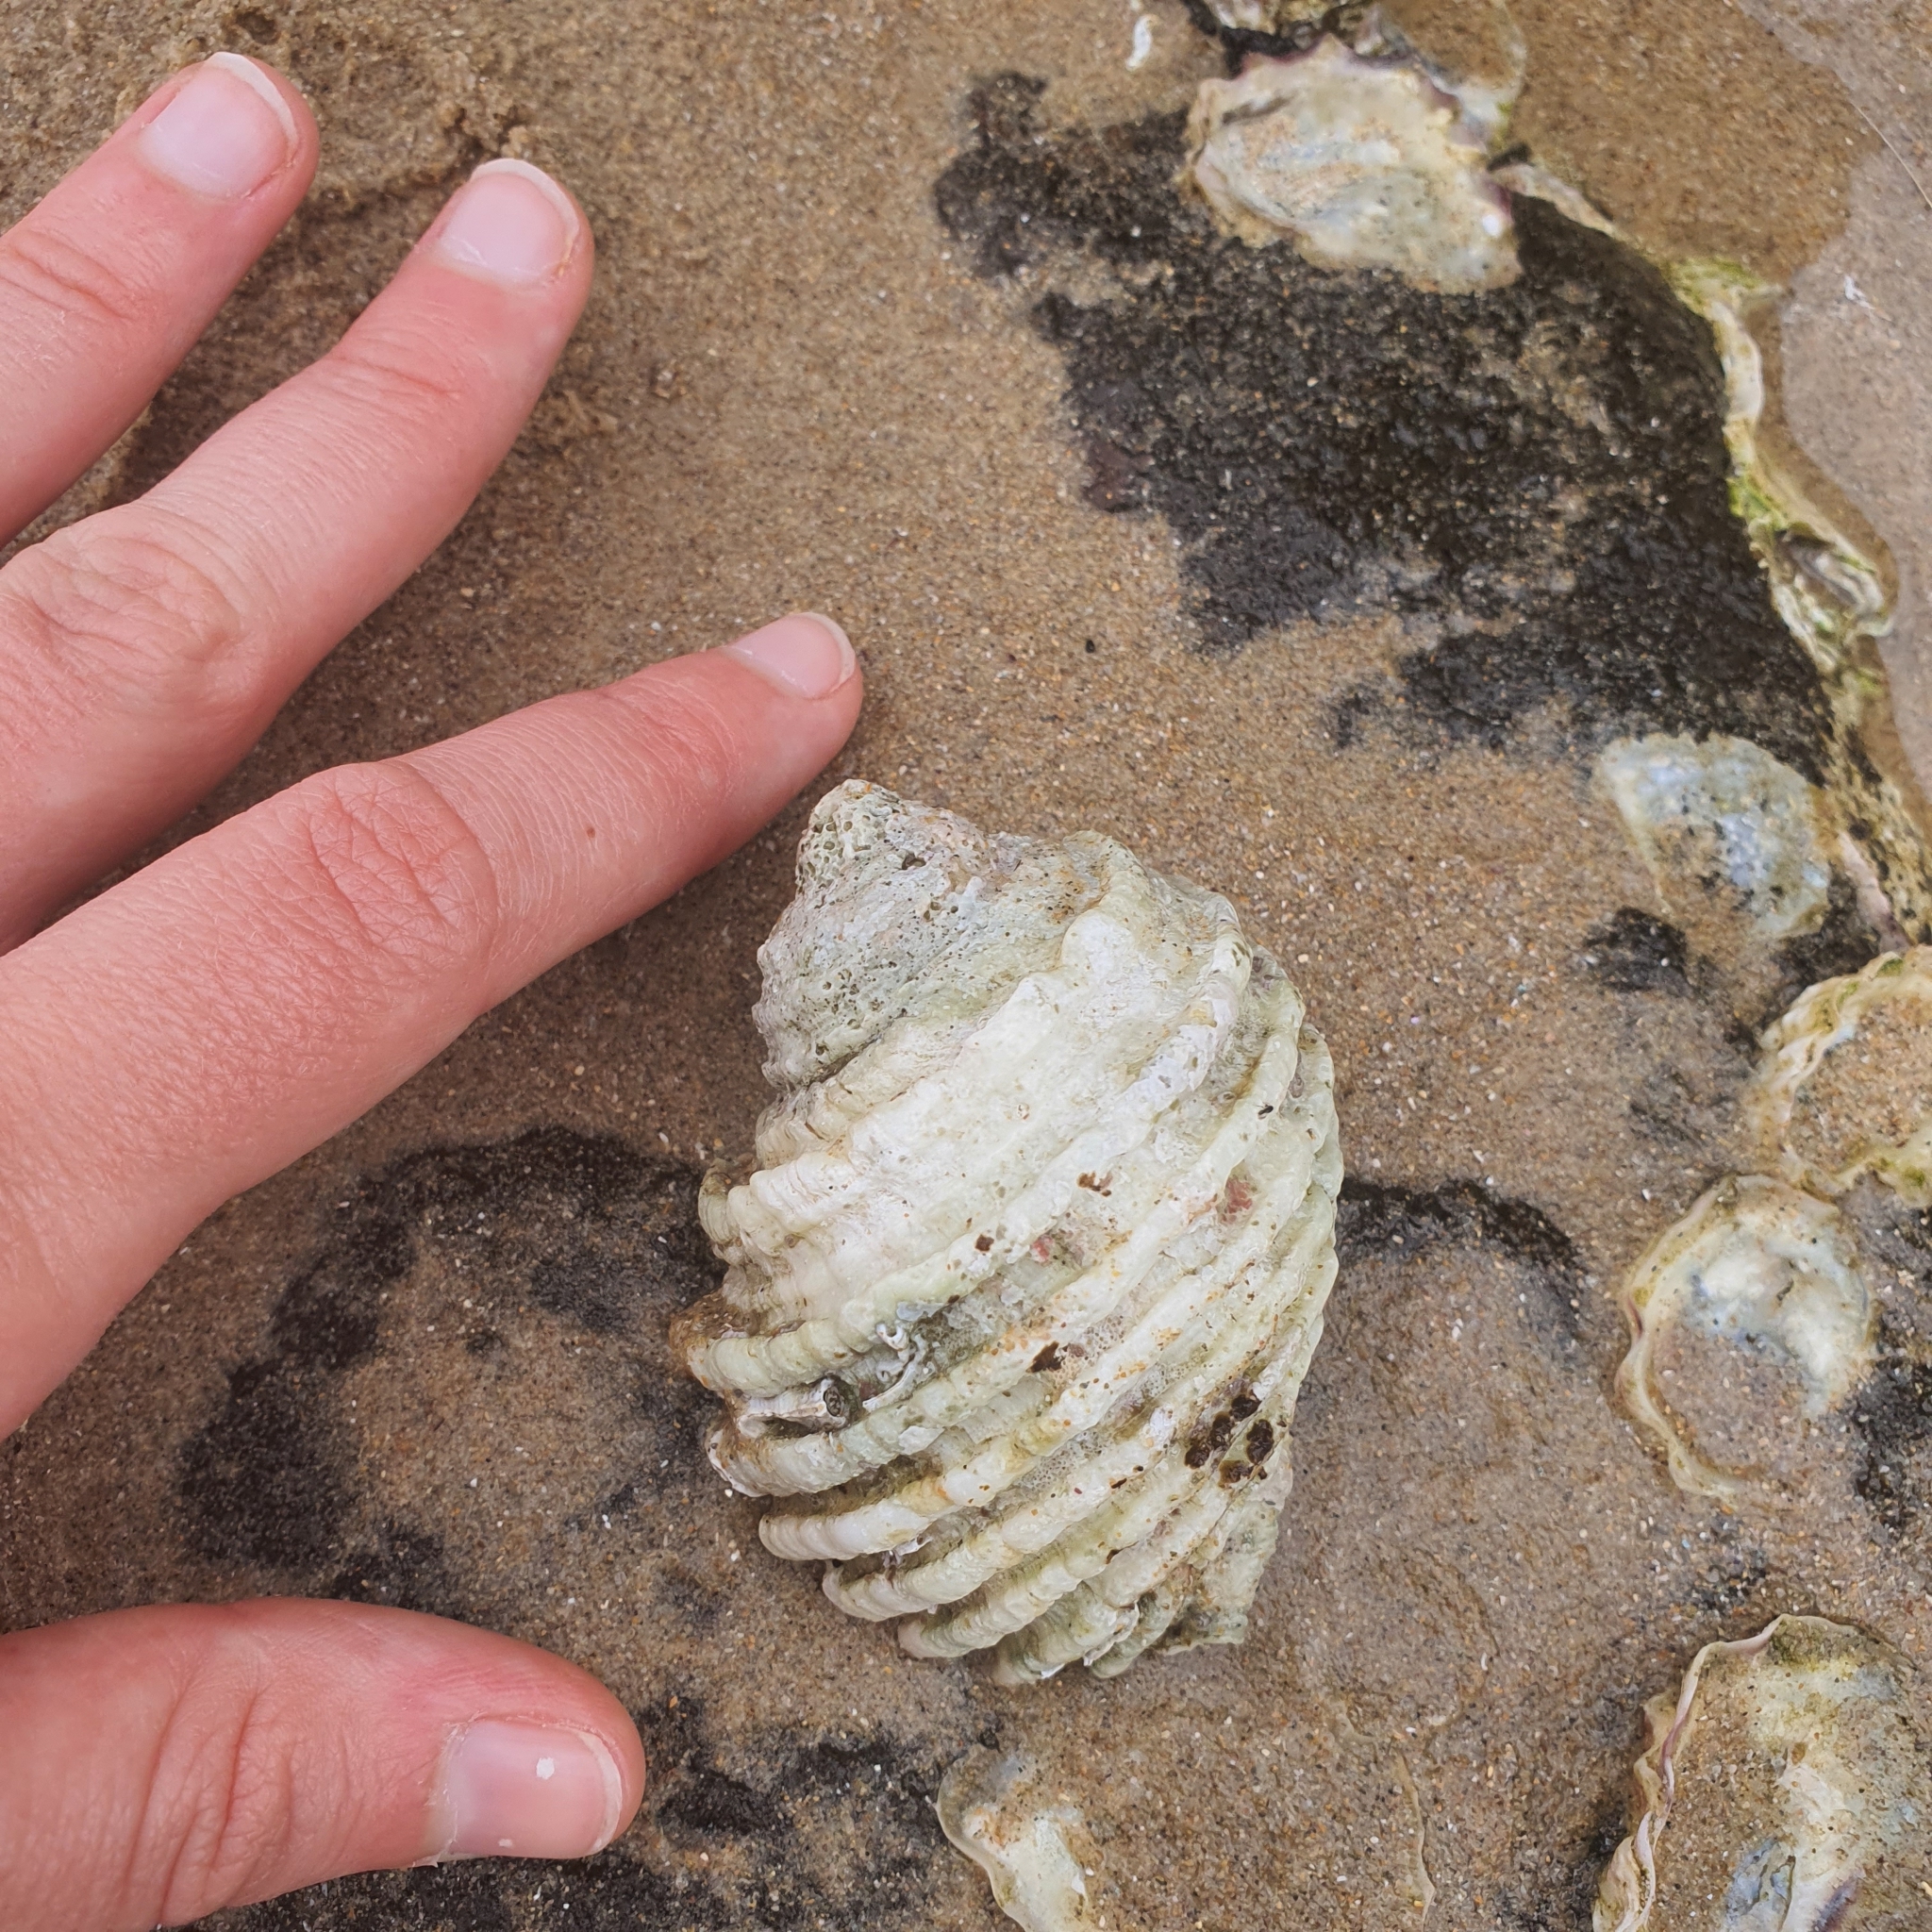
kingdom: Animalia
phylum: Mollusca
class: Gastropoda
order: Neogastropoda
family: Muricidae
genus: Dicathais
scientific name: Dicathais orbita
